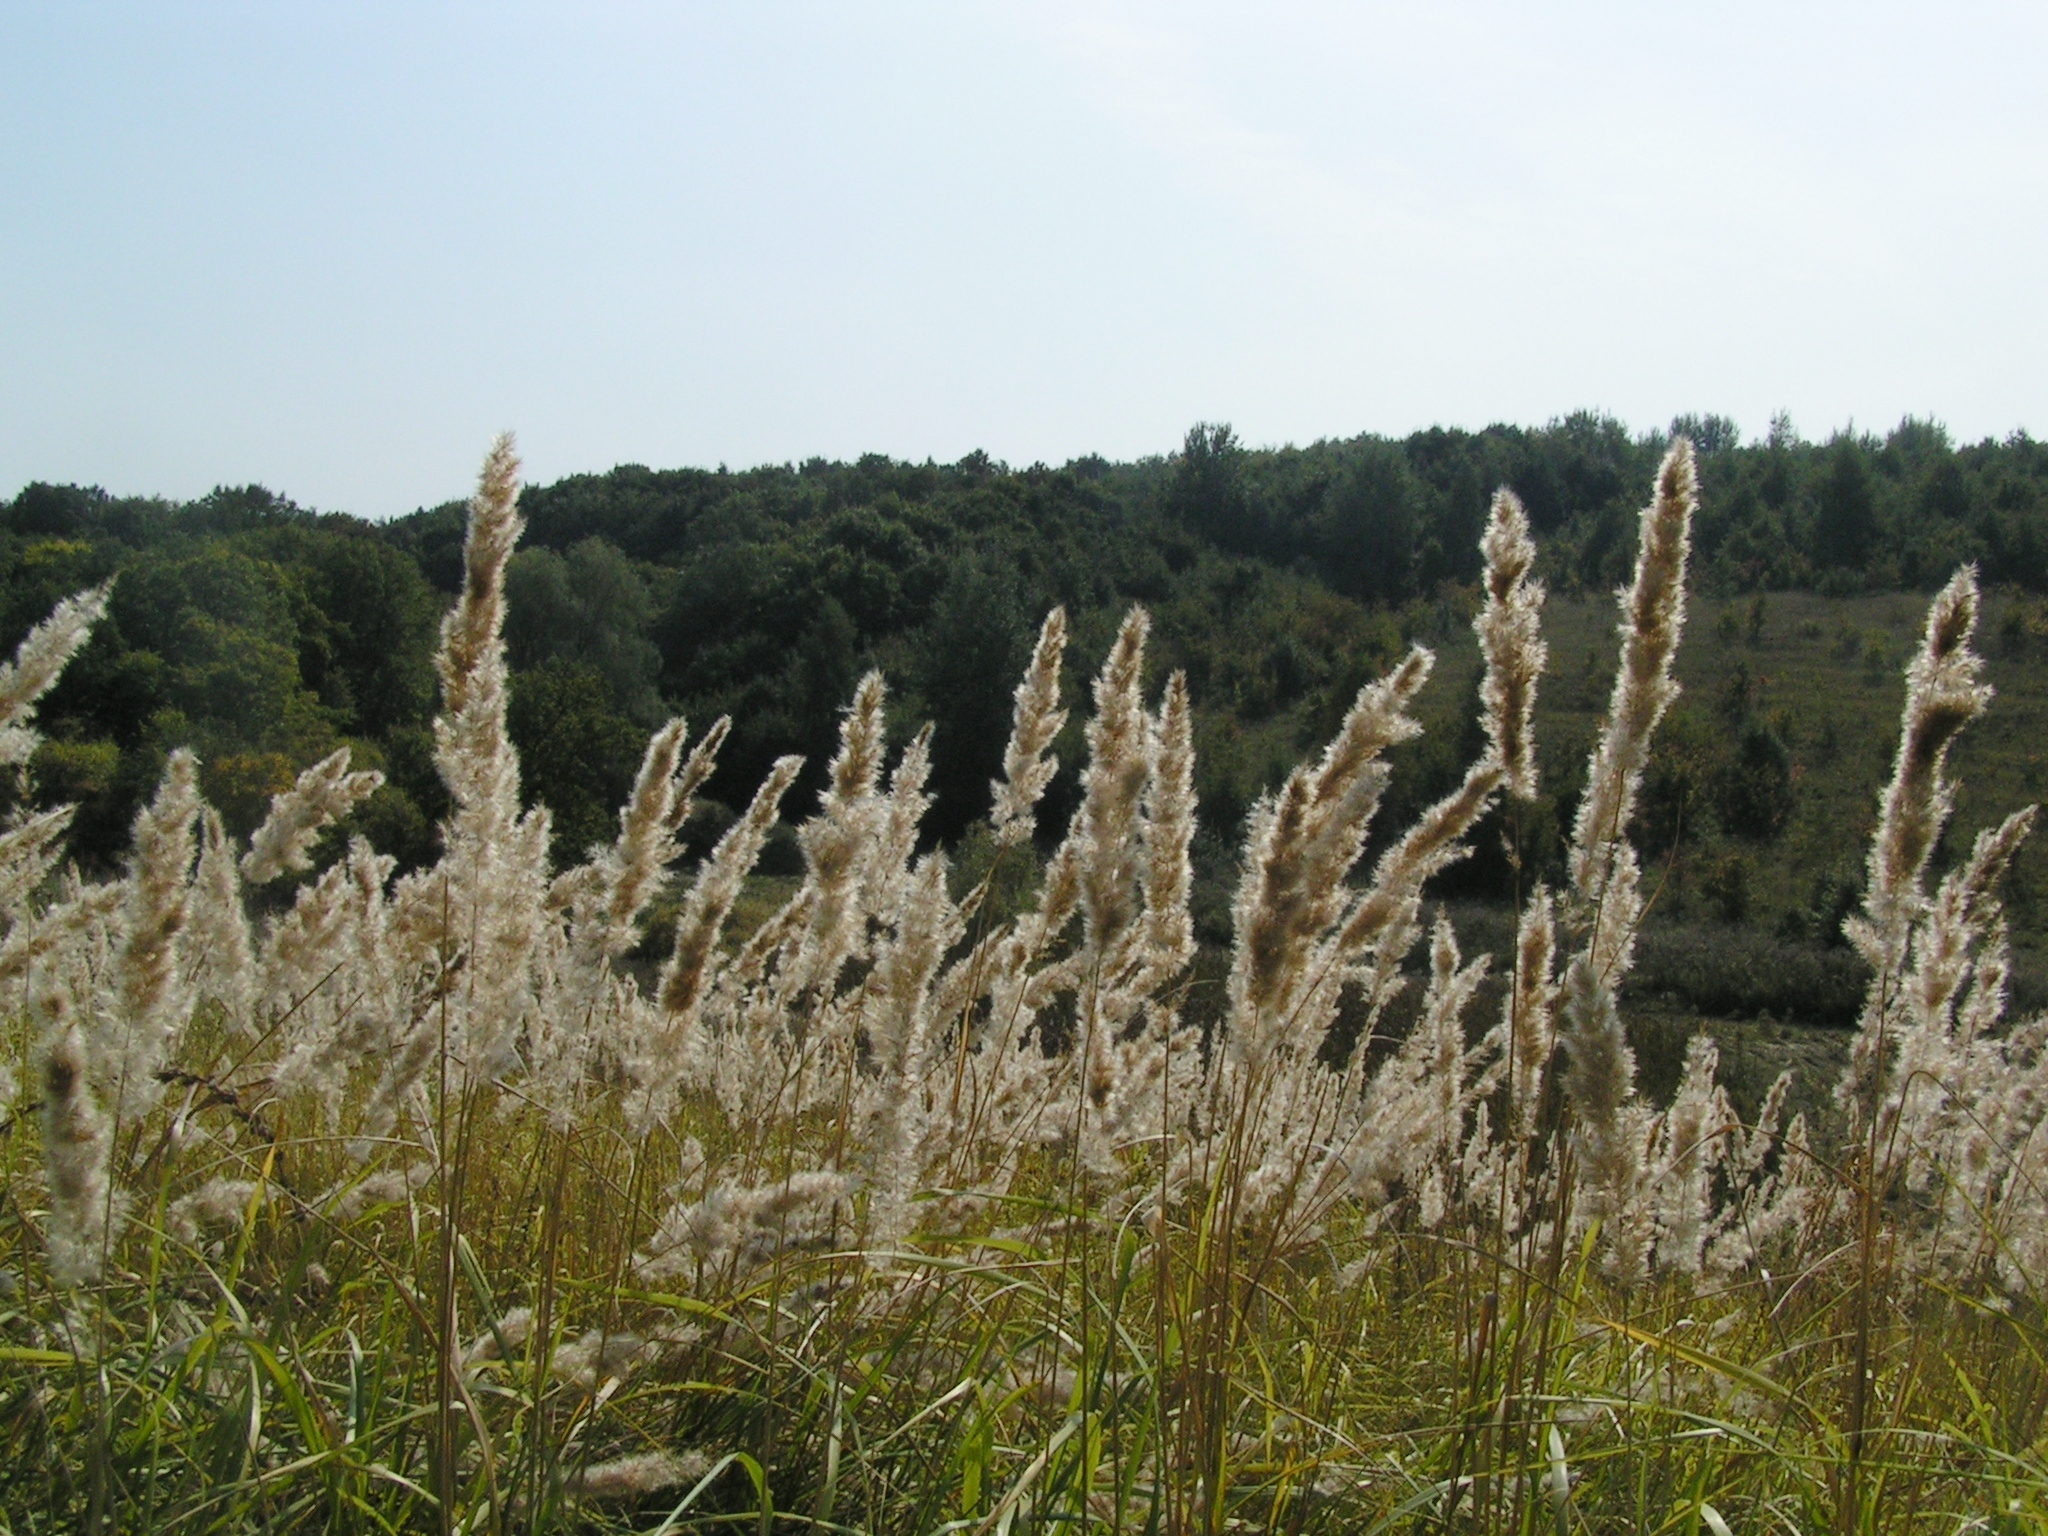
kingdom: Plantae
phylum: Tracheophyta
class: Liliopsida
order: Poales
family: Poaceae
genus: Calamagrostis
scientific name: Calamagrostis epigejos
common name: Wood small-reed
